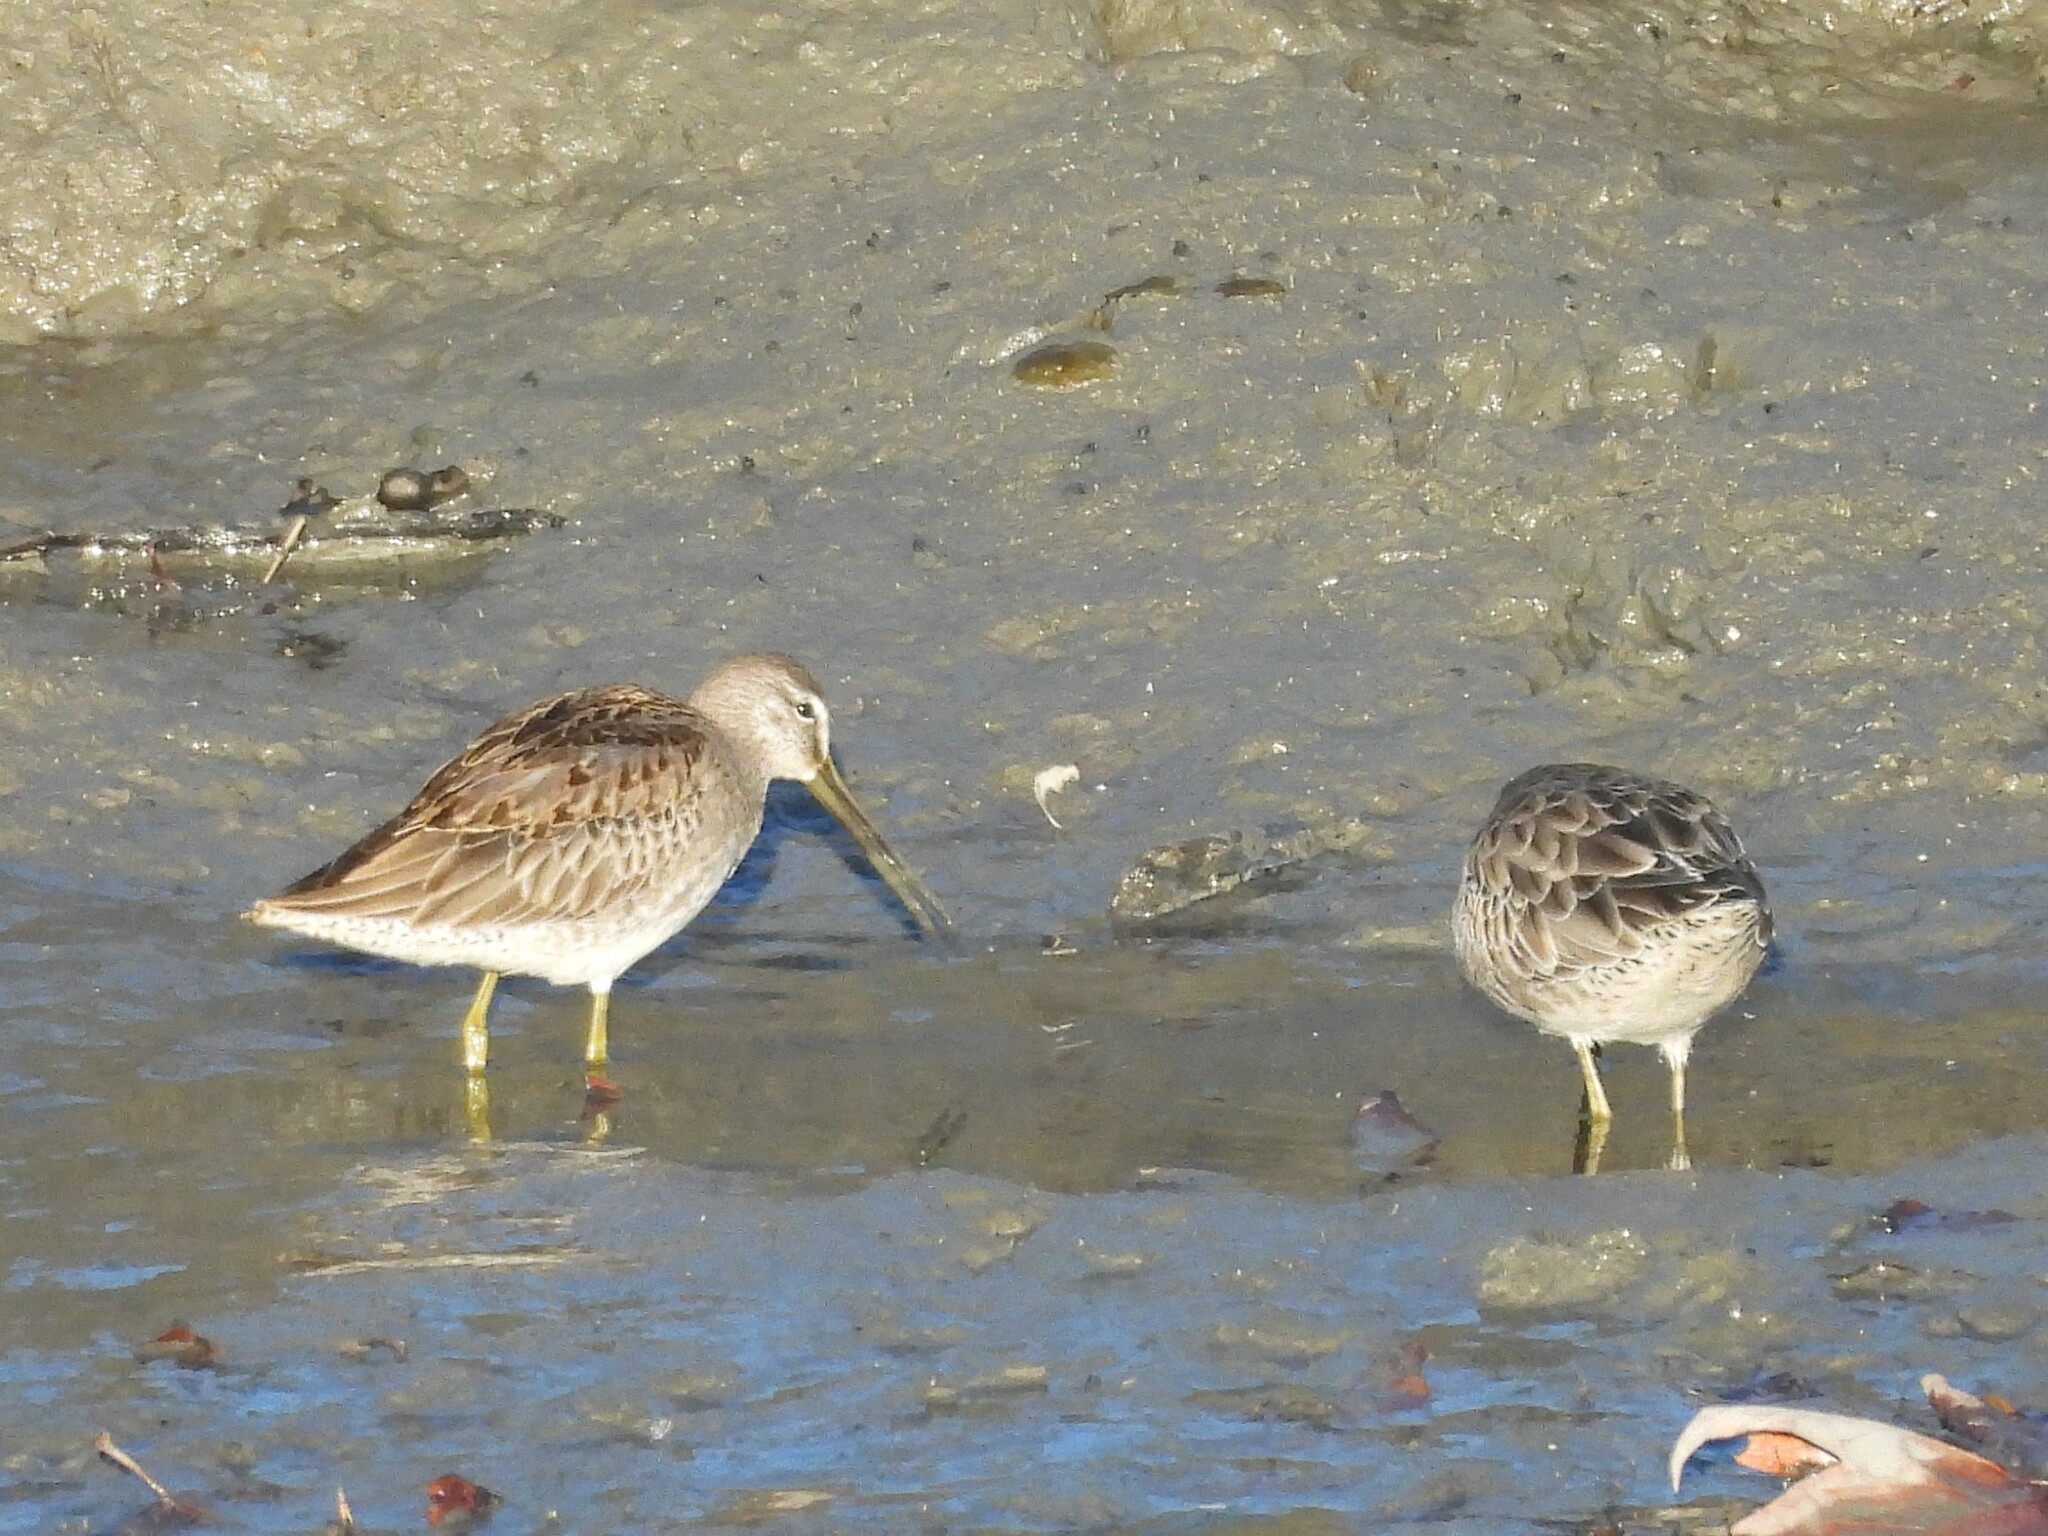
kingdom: Animalia
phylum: Chordata
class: Aves
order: Charadriiformes
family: Scolopacidae
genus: Limnodromus
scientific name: Limnodromus scolopaceus
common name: Long-billed dowitcher
